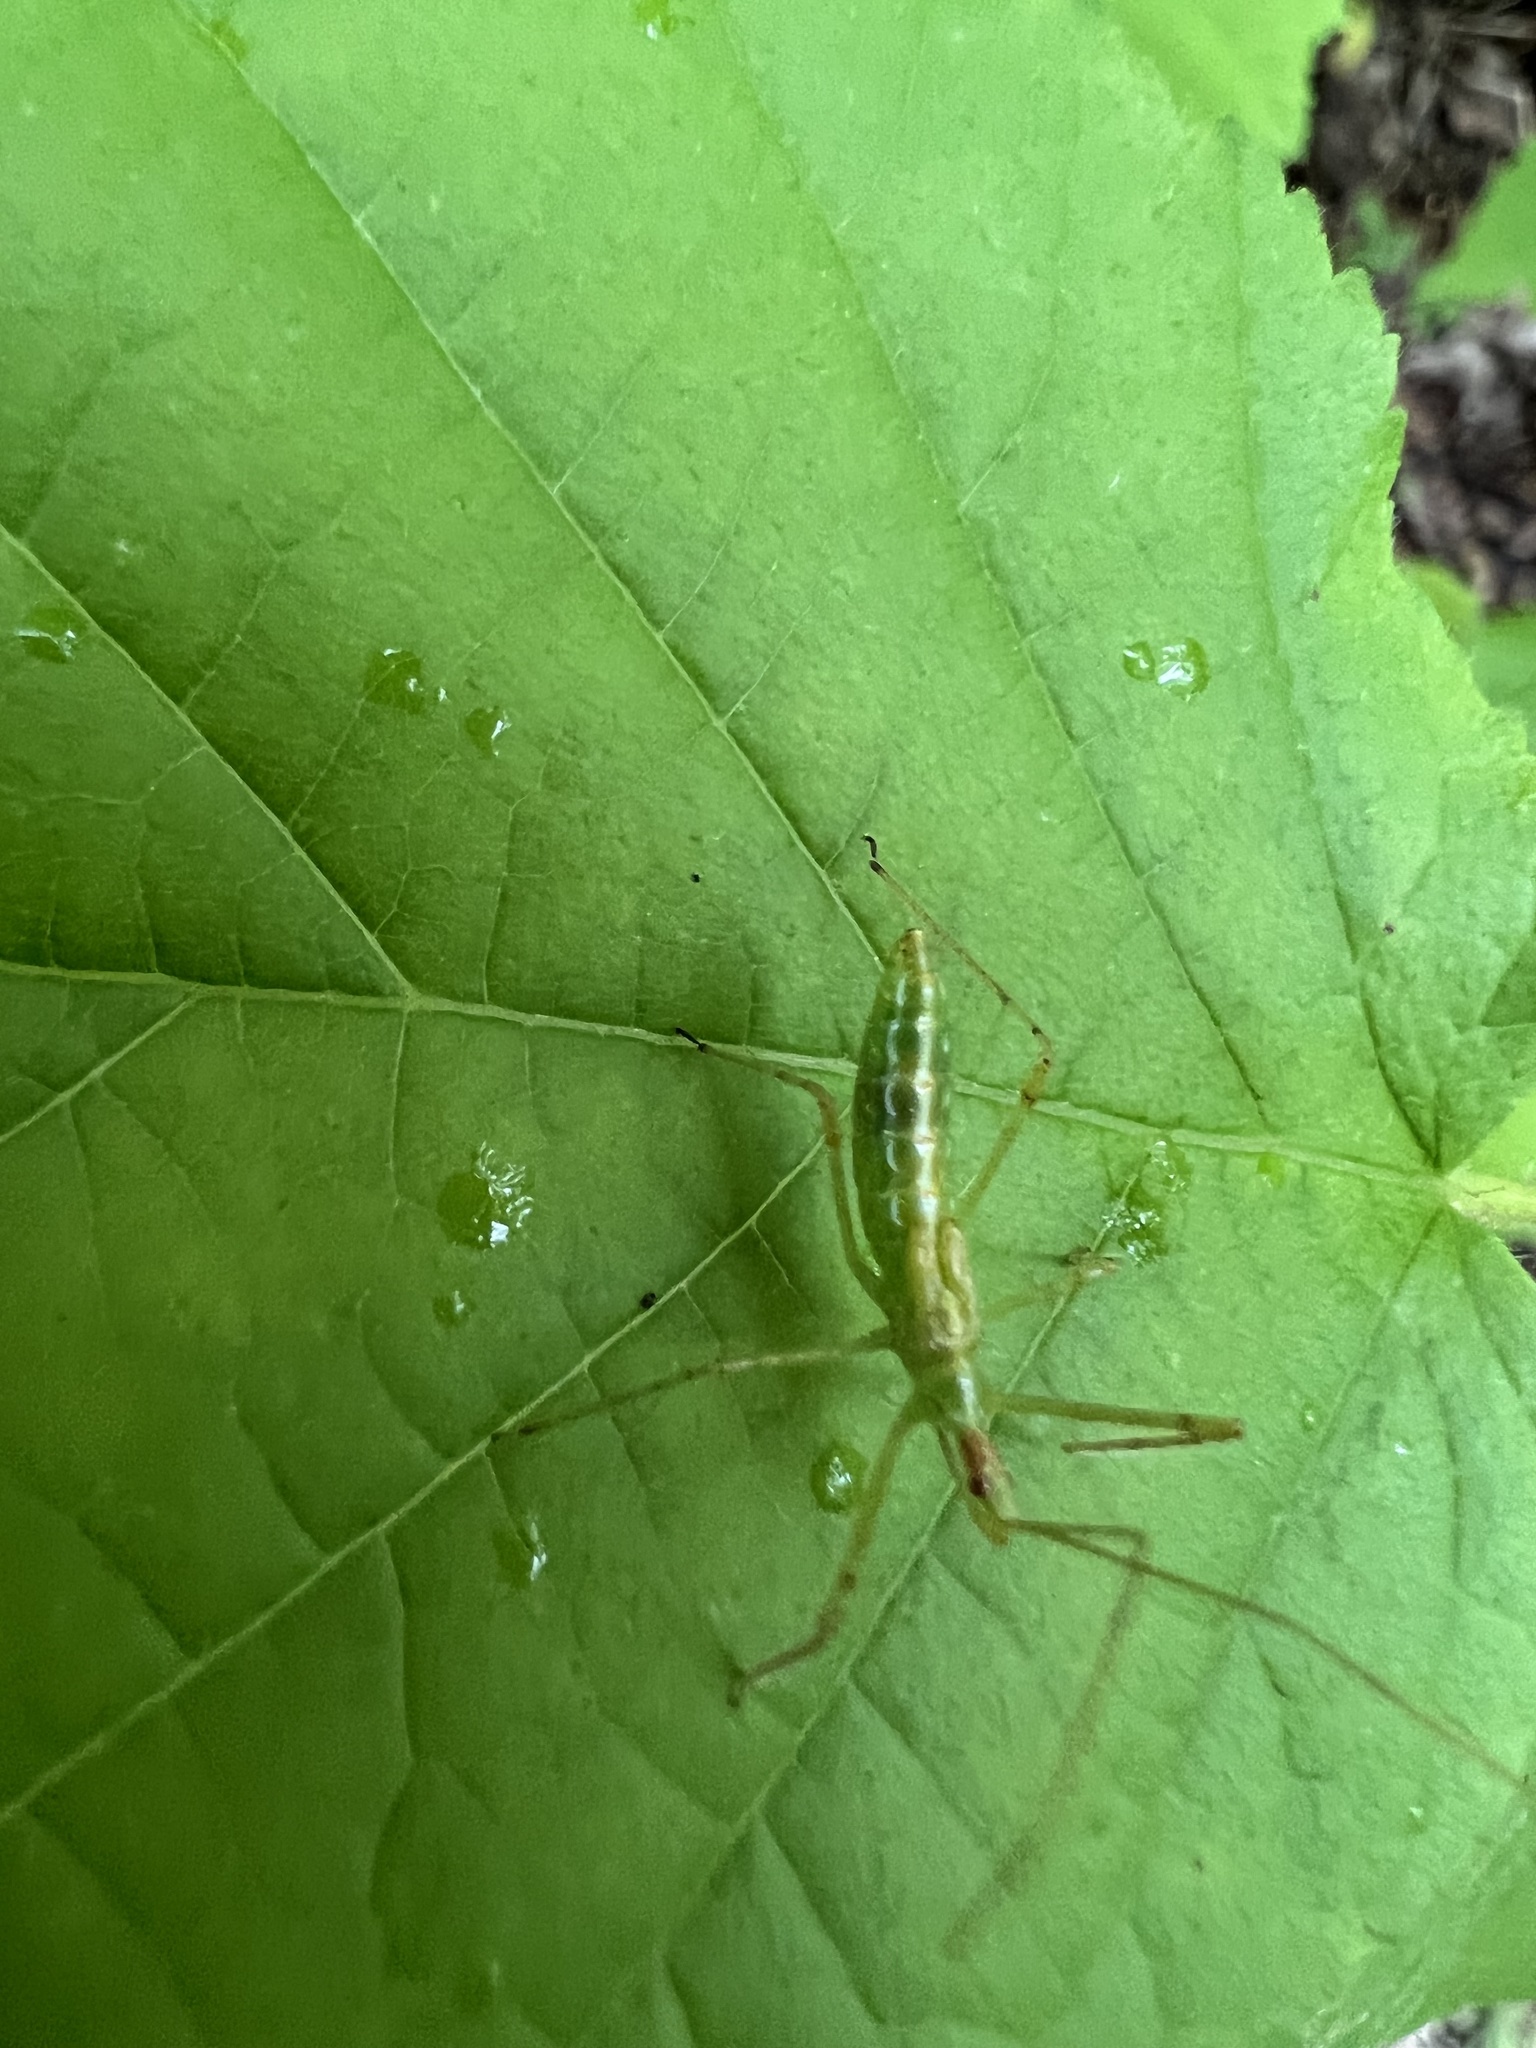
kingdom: Animalia
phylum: Arthropoda
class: Insecta
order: Hemiptera
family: Reduviidae
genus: Zelus
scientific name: Zelus luridus
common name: Pale green assassin bug
